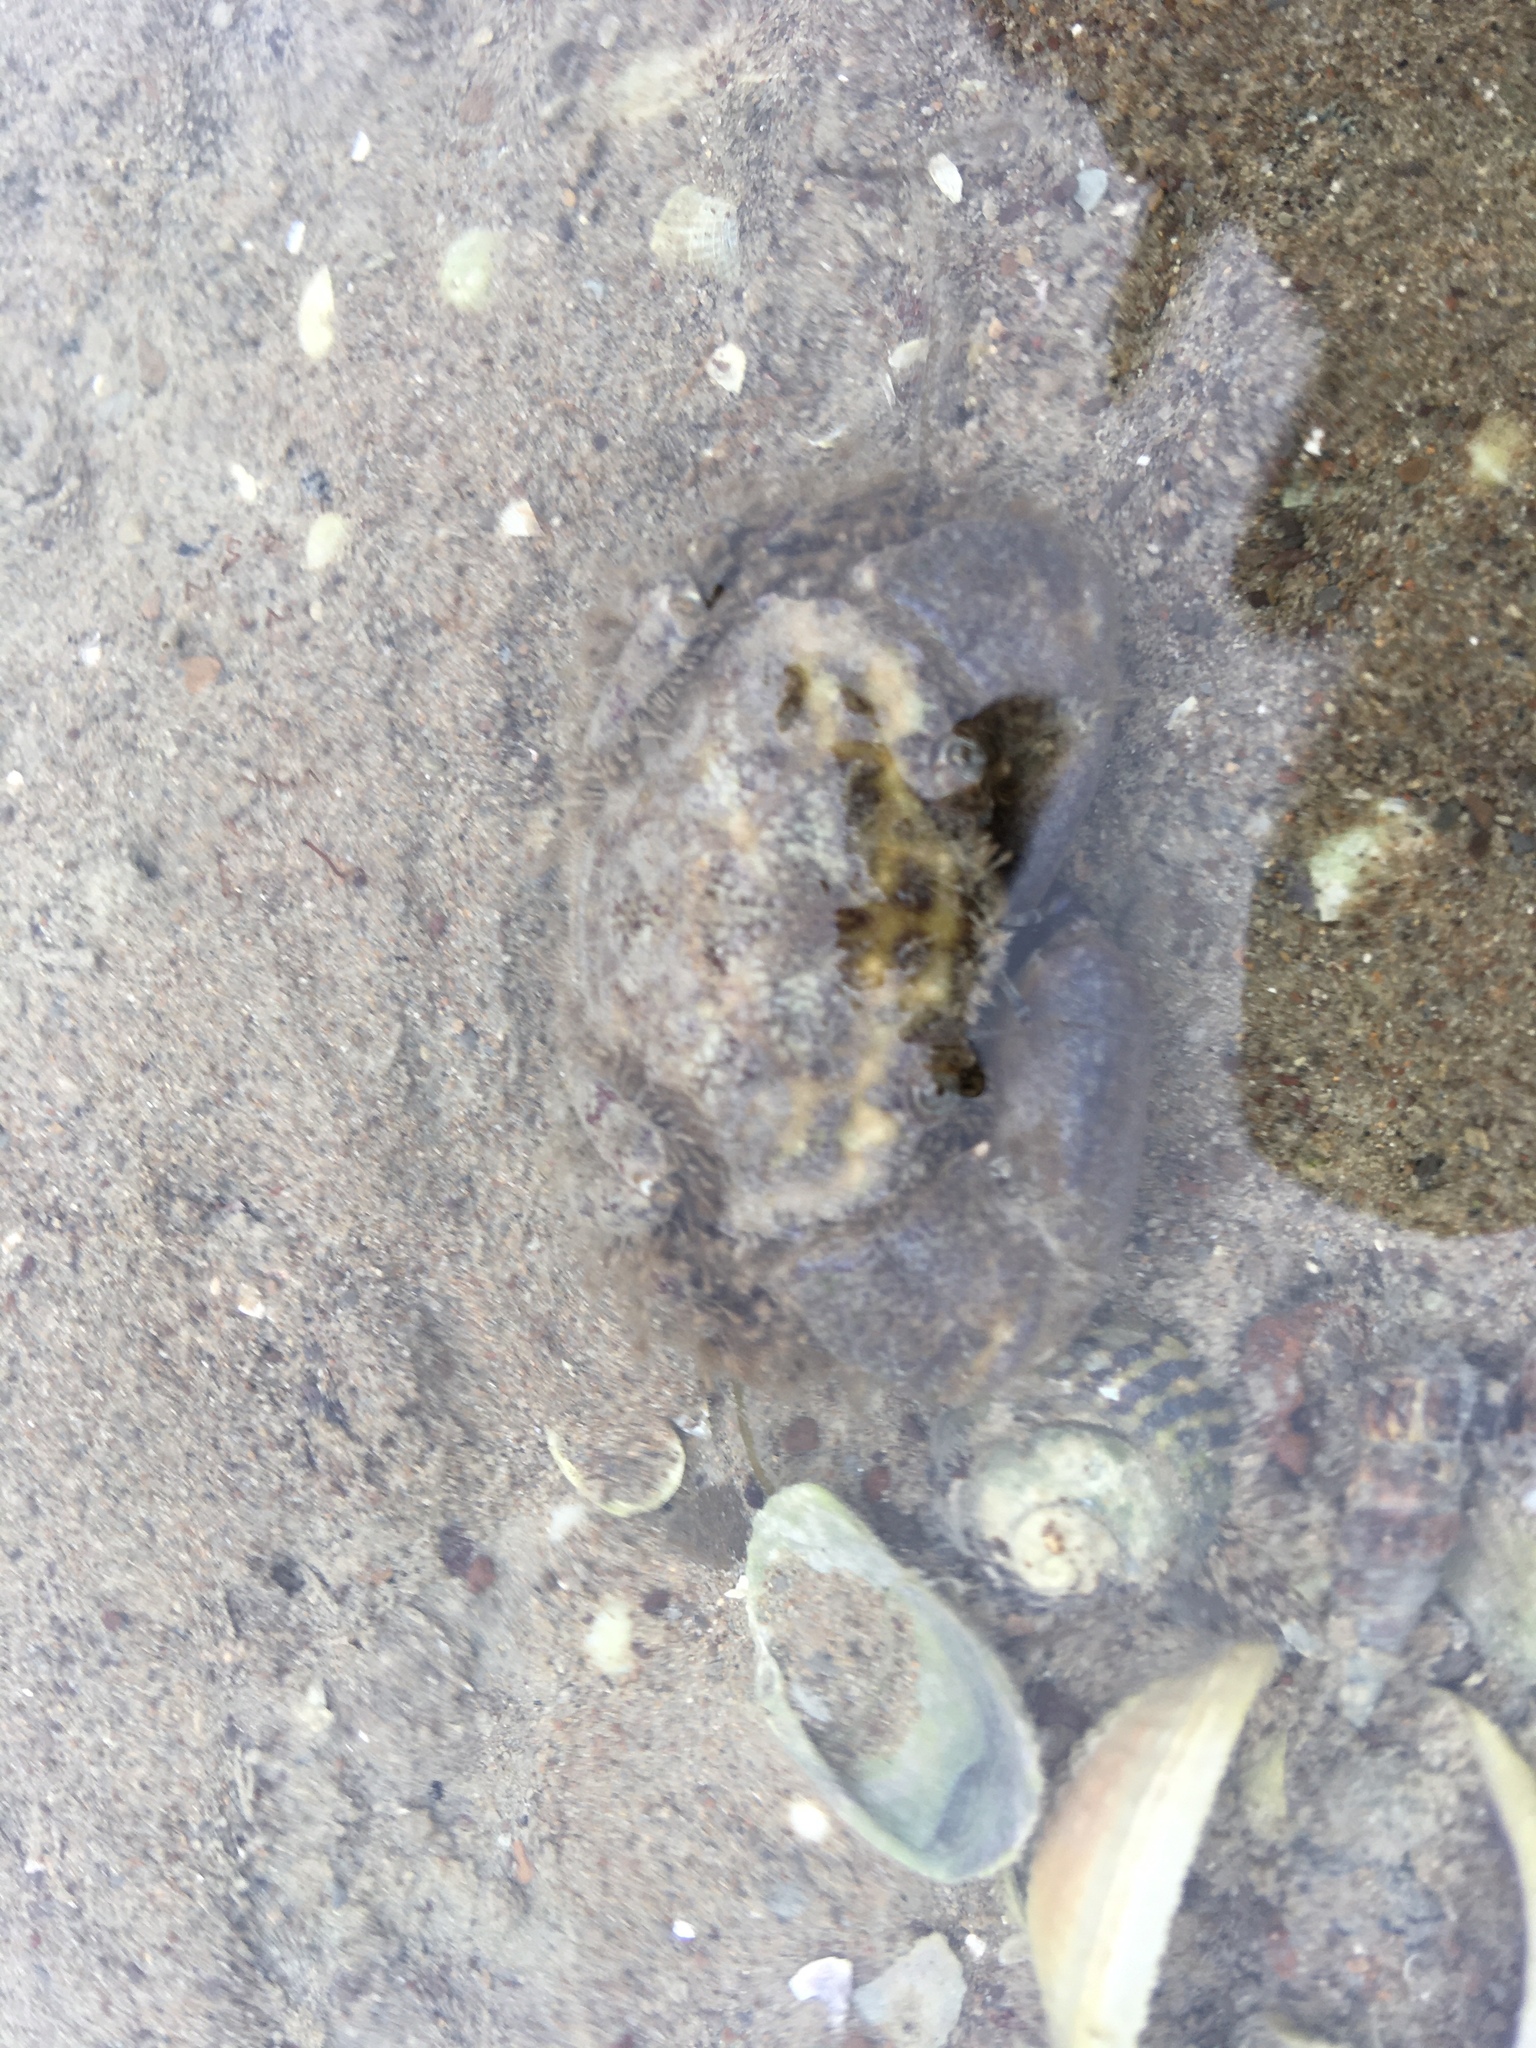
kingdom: Animalia
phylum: Arthropoda
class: Malacostraca
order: Decapoda
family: Pilumnidae
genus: Pilumnopeus
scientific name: Pilumnopeus serratifrons
